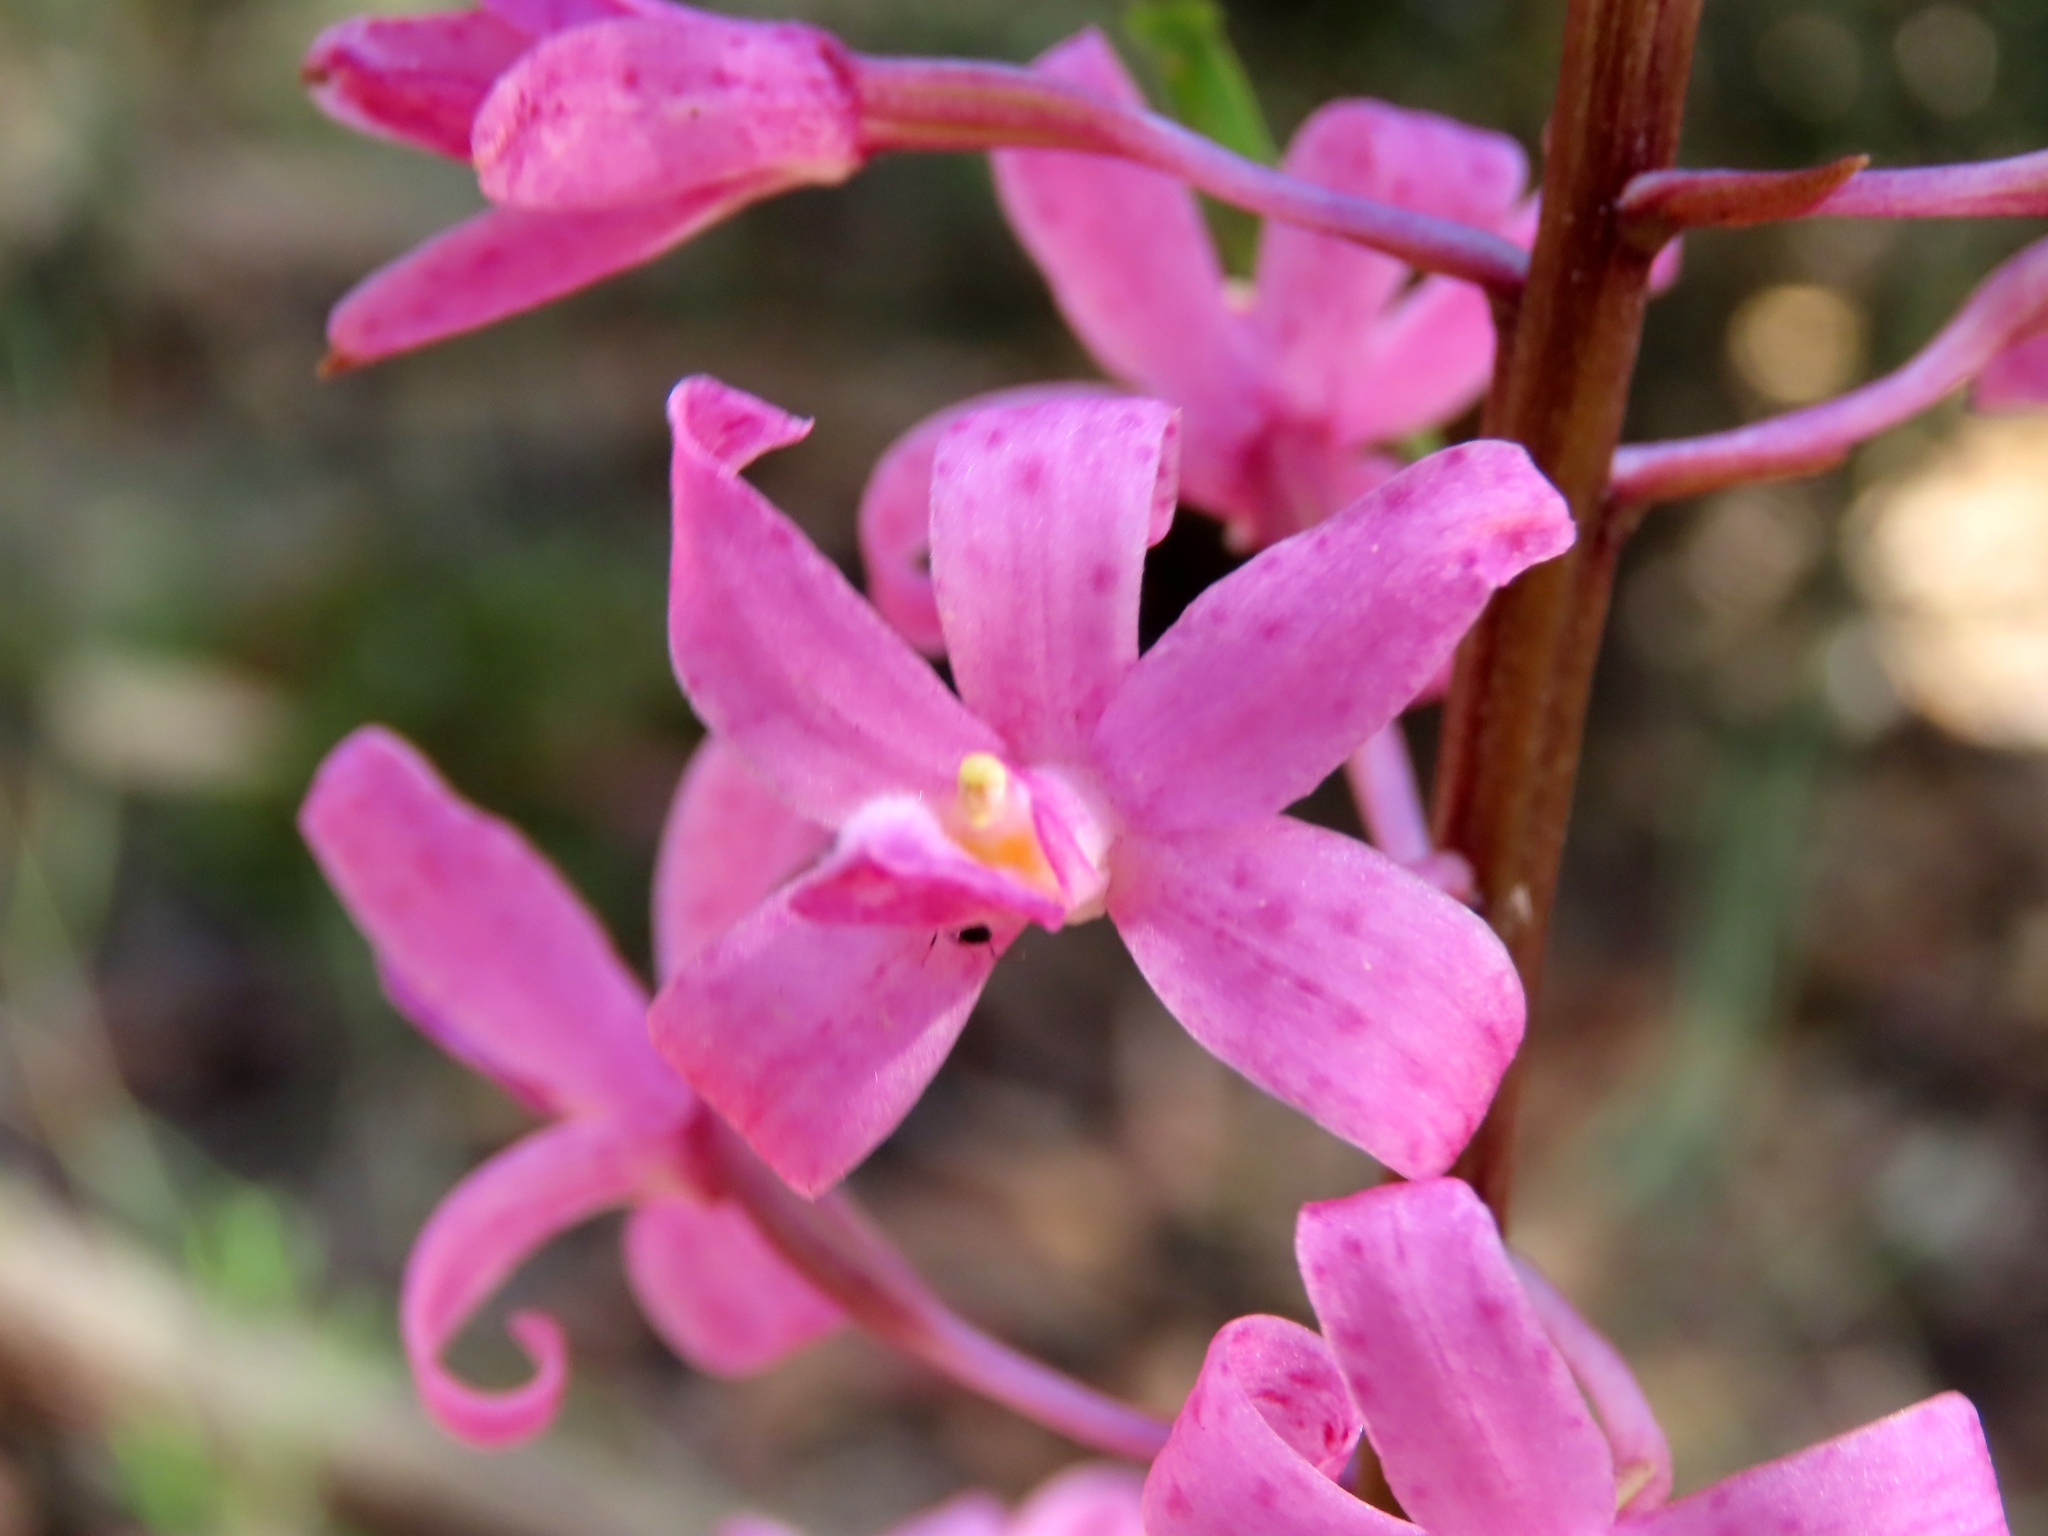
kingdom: Plantae
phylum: Tracheophyta
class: Liliopsida
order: Asparagales
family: Orchidaceae
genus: Dipodium
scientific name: Dipodium roseum
